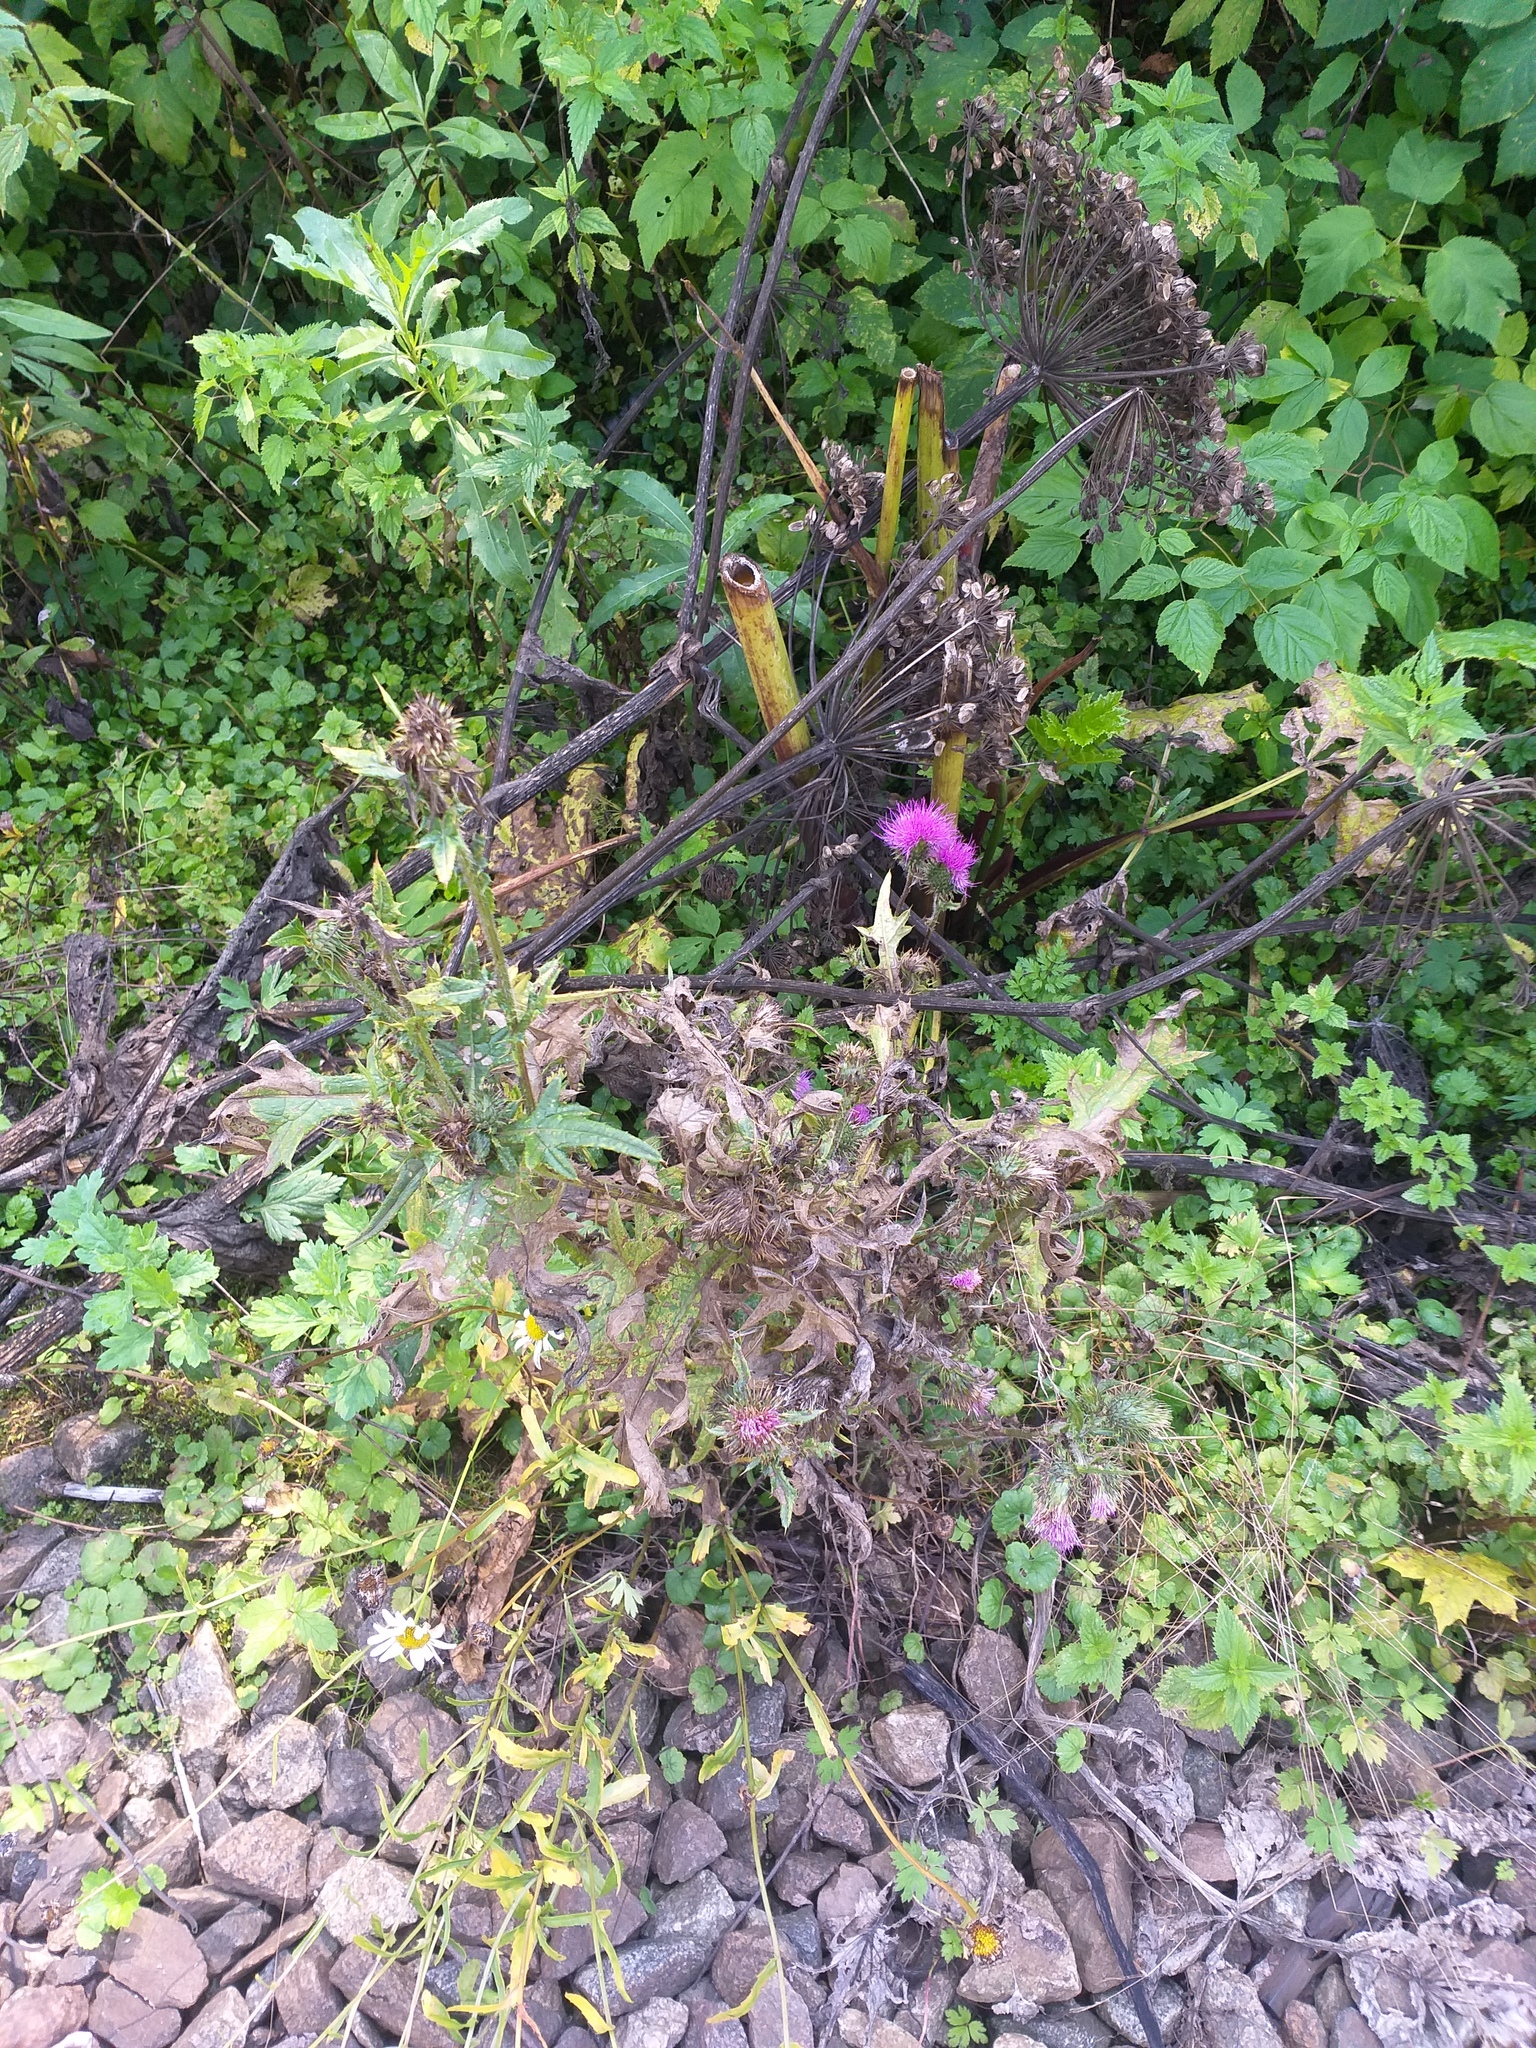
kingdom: Plantae
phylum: Tracheophyta
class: Magnoliopsida
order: Asterales
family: Asteraceae
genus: Cirsium
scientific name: Cirsium vulgare
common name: Bull thistle
